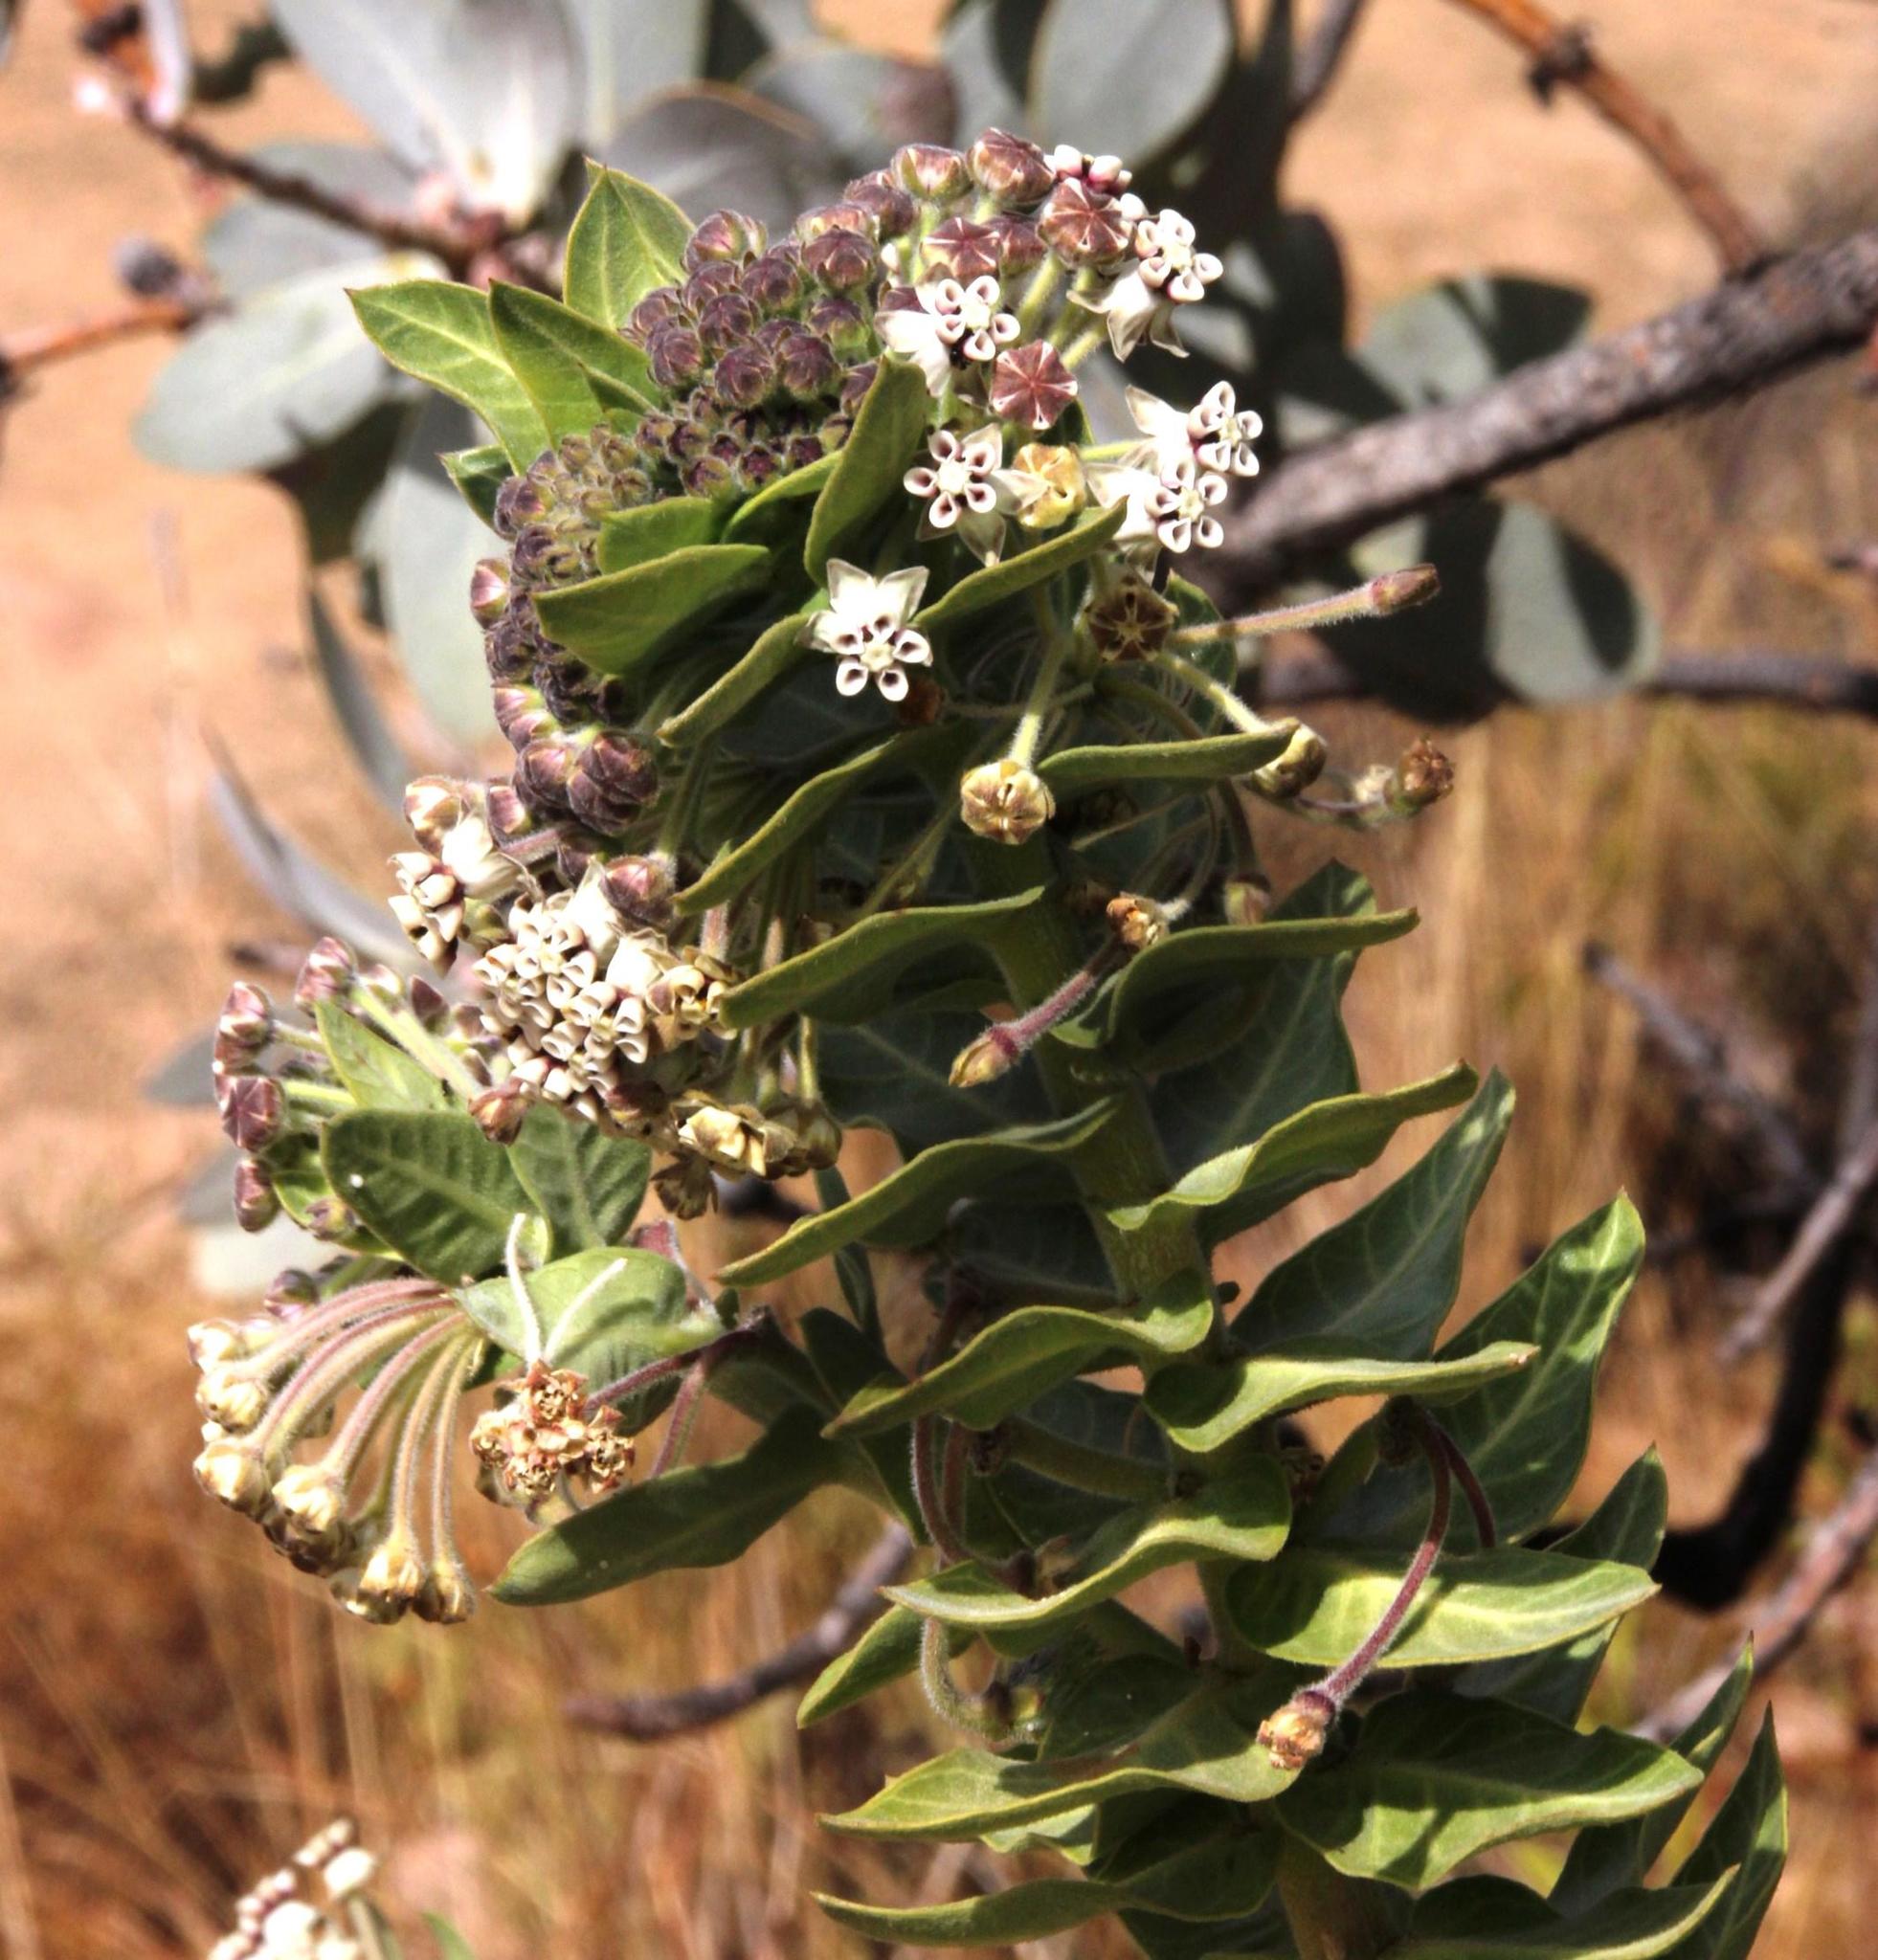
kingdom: Plantae
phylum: Tracheophyta
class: Magnoliopsida
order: Gentianales
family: Apocynaceae
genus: Gomphocarpus
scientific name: Gomphocarpus cancellatus
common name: Wild cotton
